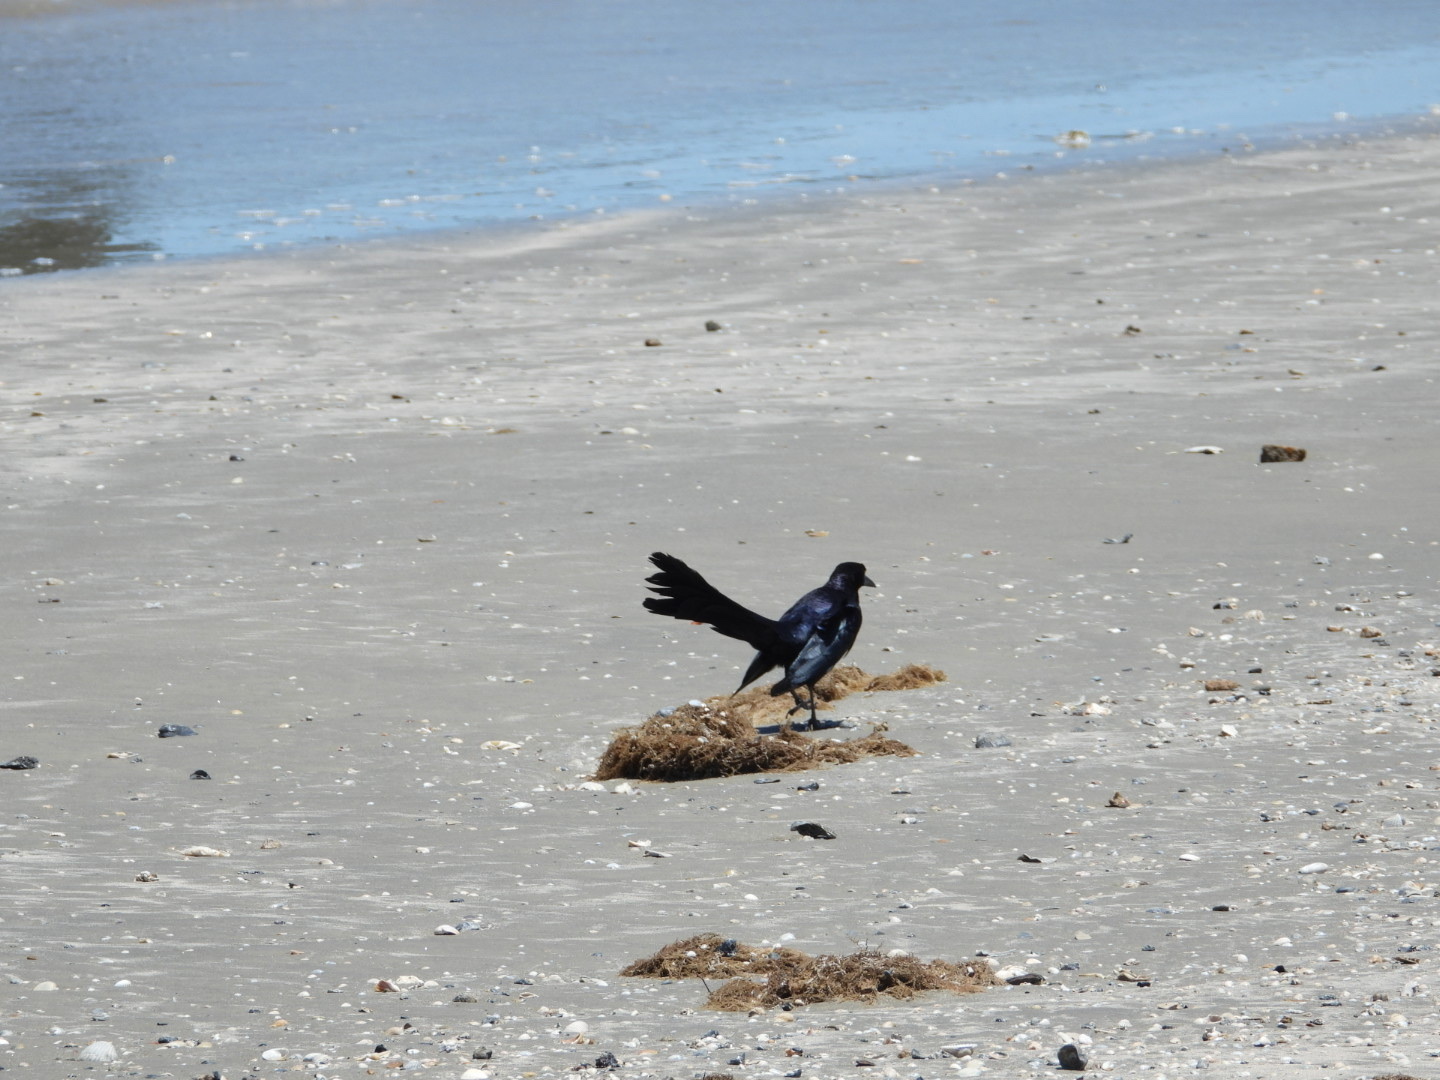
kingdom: Animalia
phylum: Chordata
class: Aves
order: Passeriformes
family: Icteridae
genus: Quiscalus
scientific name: Quiscalus mexicanus
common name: Great-tailed grackle
